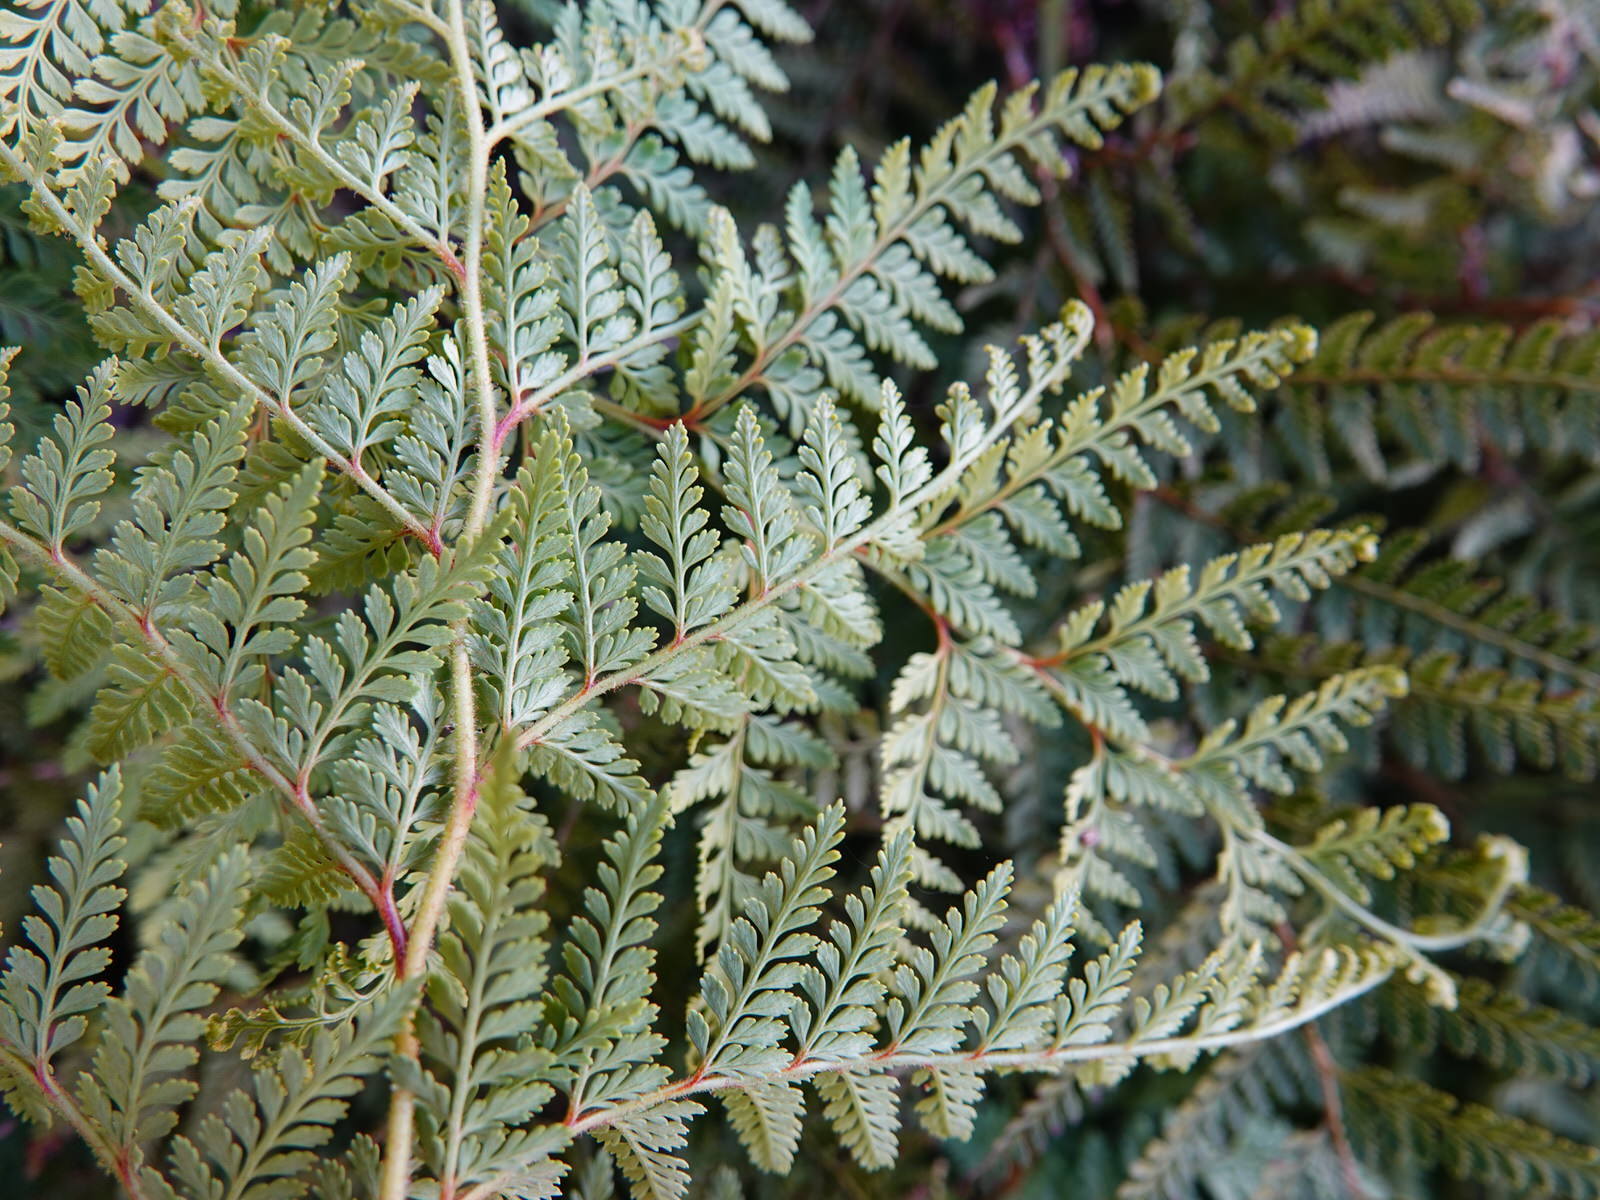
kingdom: Plantae
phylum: Tracheophyta
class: Polypodiopsida
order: Polypodiales
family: Dennstaedtiaceae
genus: Paesia
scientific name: Paesia scaberula
